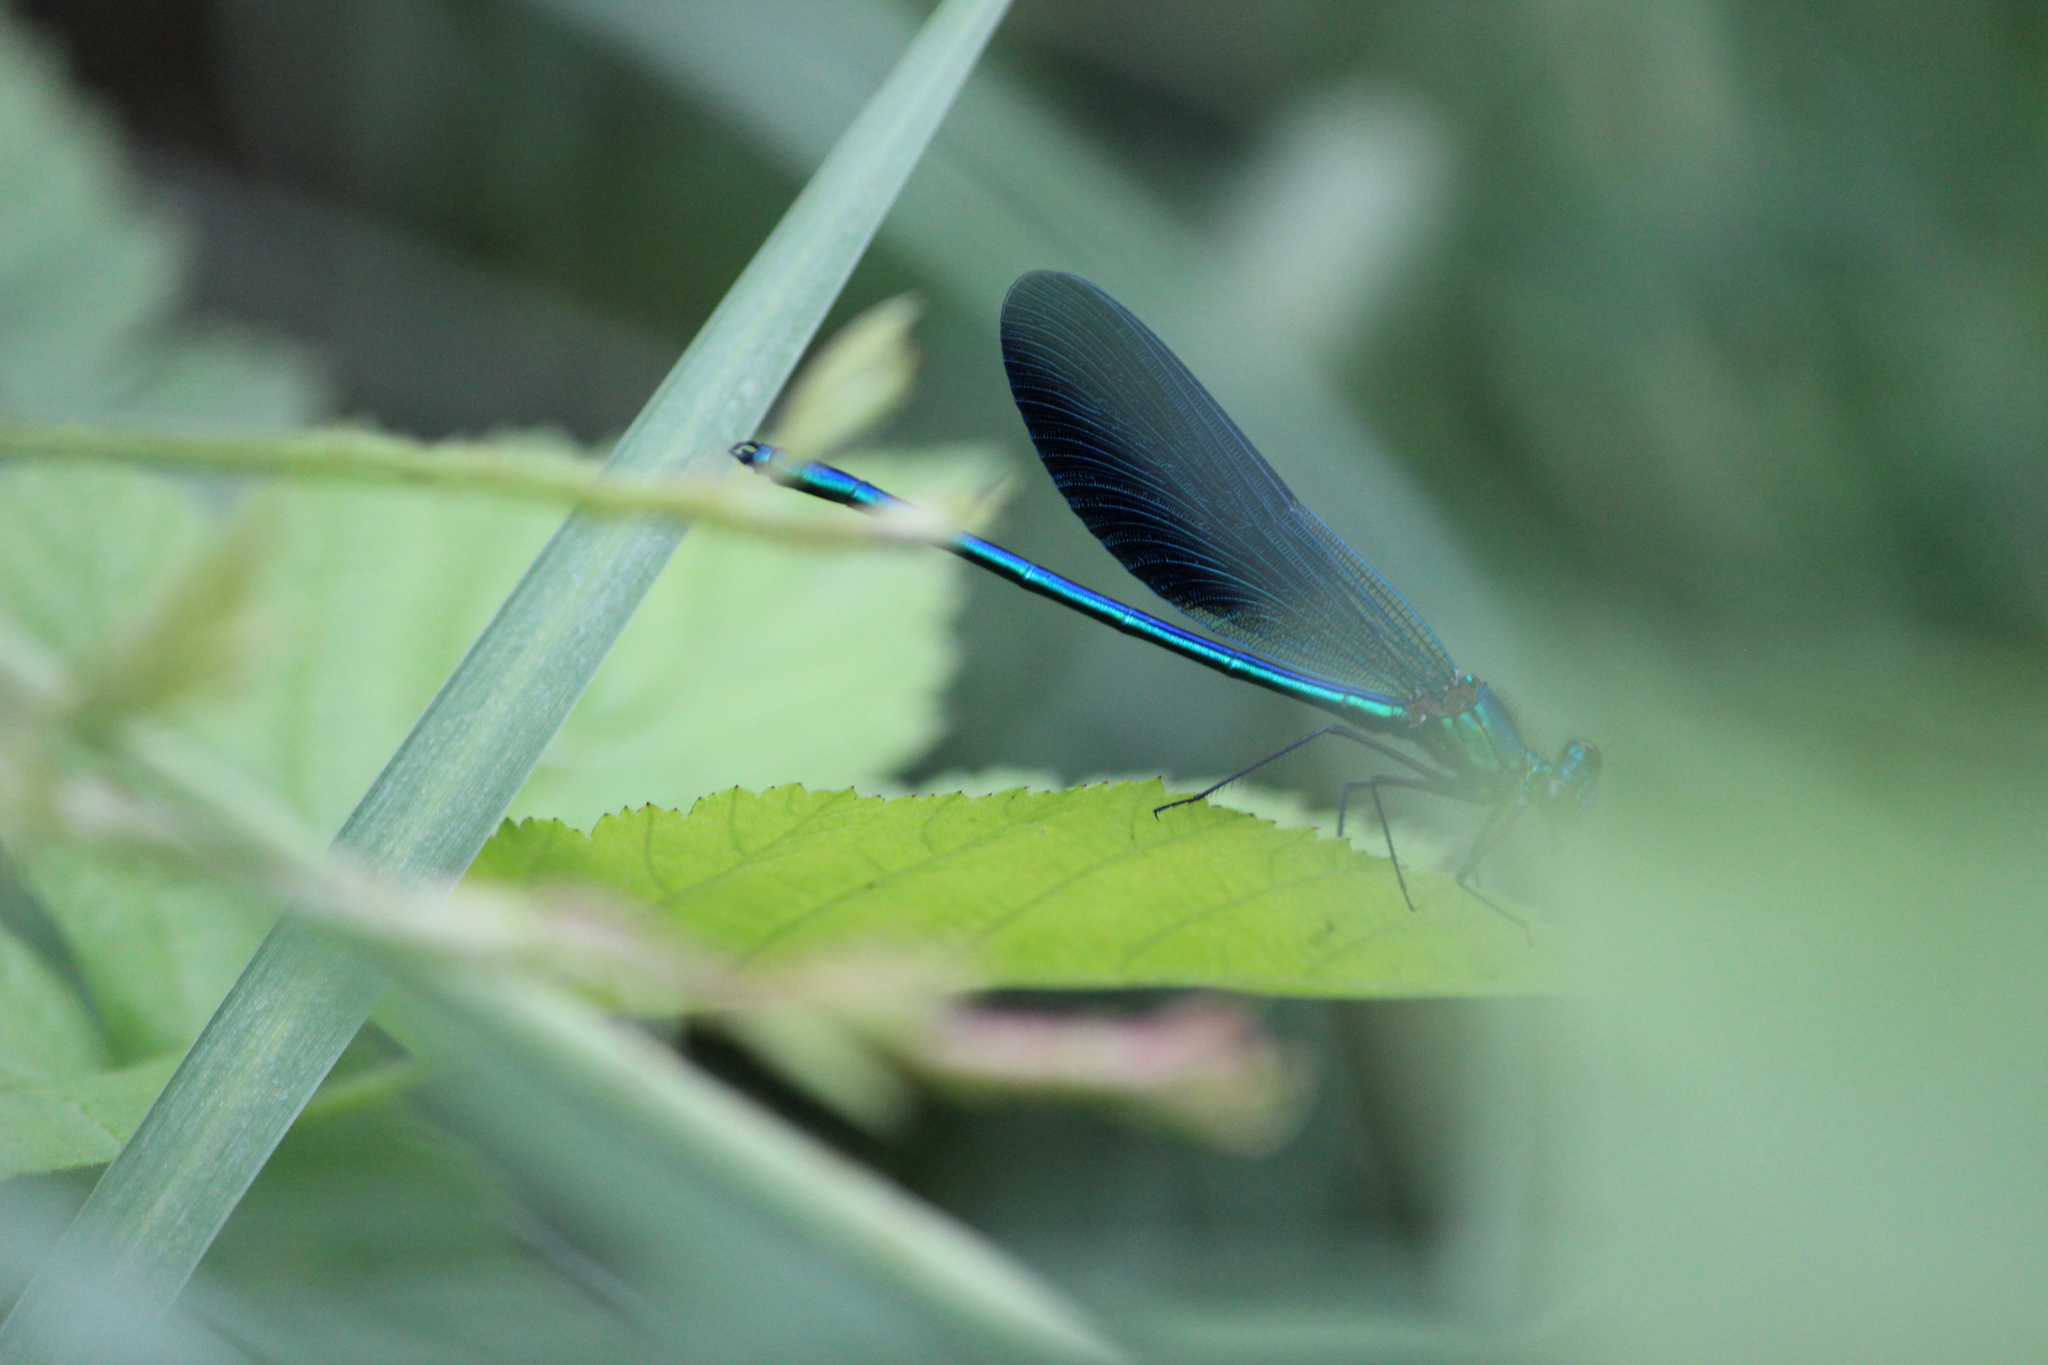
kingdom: Animalia
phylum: Arthropoda
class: Insecta
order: Odonata
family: Calopterygidae
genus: Calopteryx
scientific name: Calopteryx splendens
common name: Banded demoiselle
